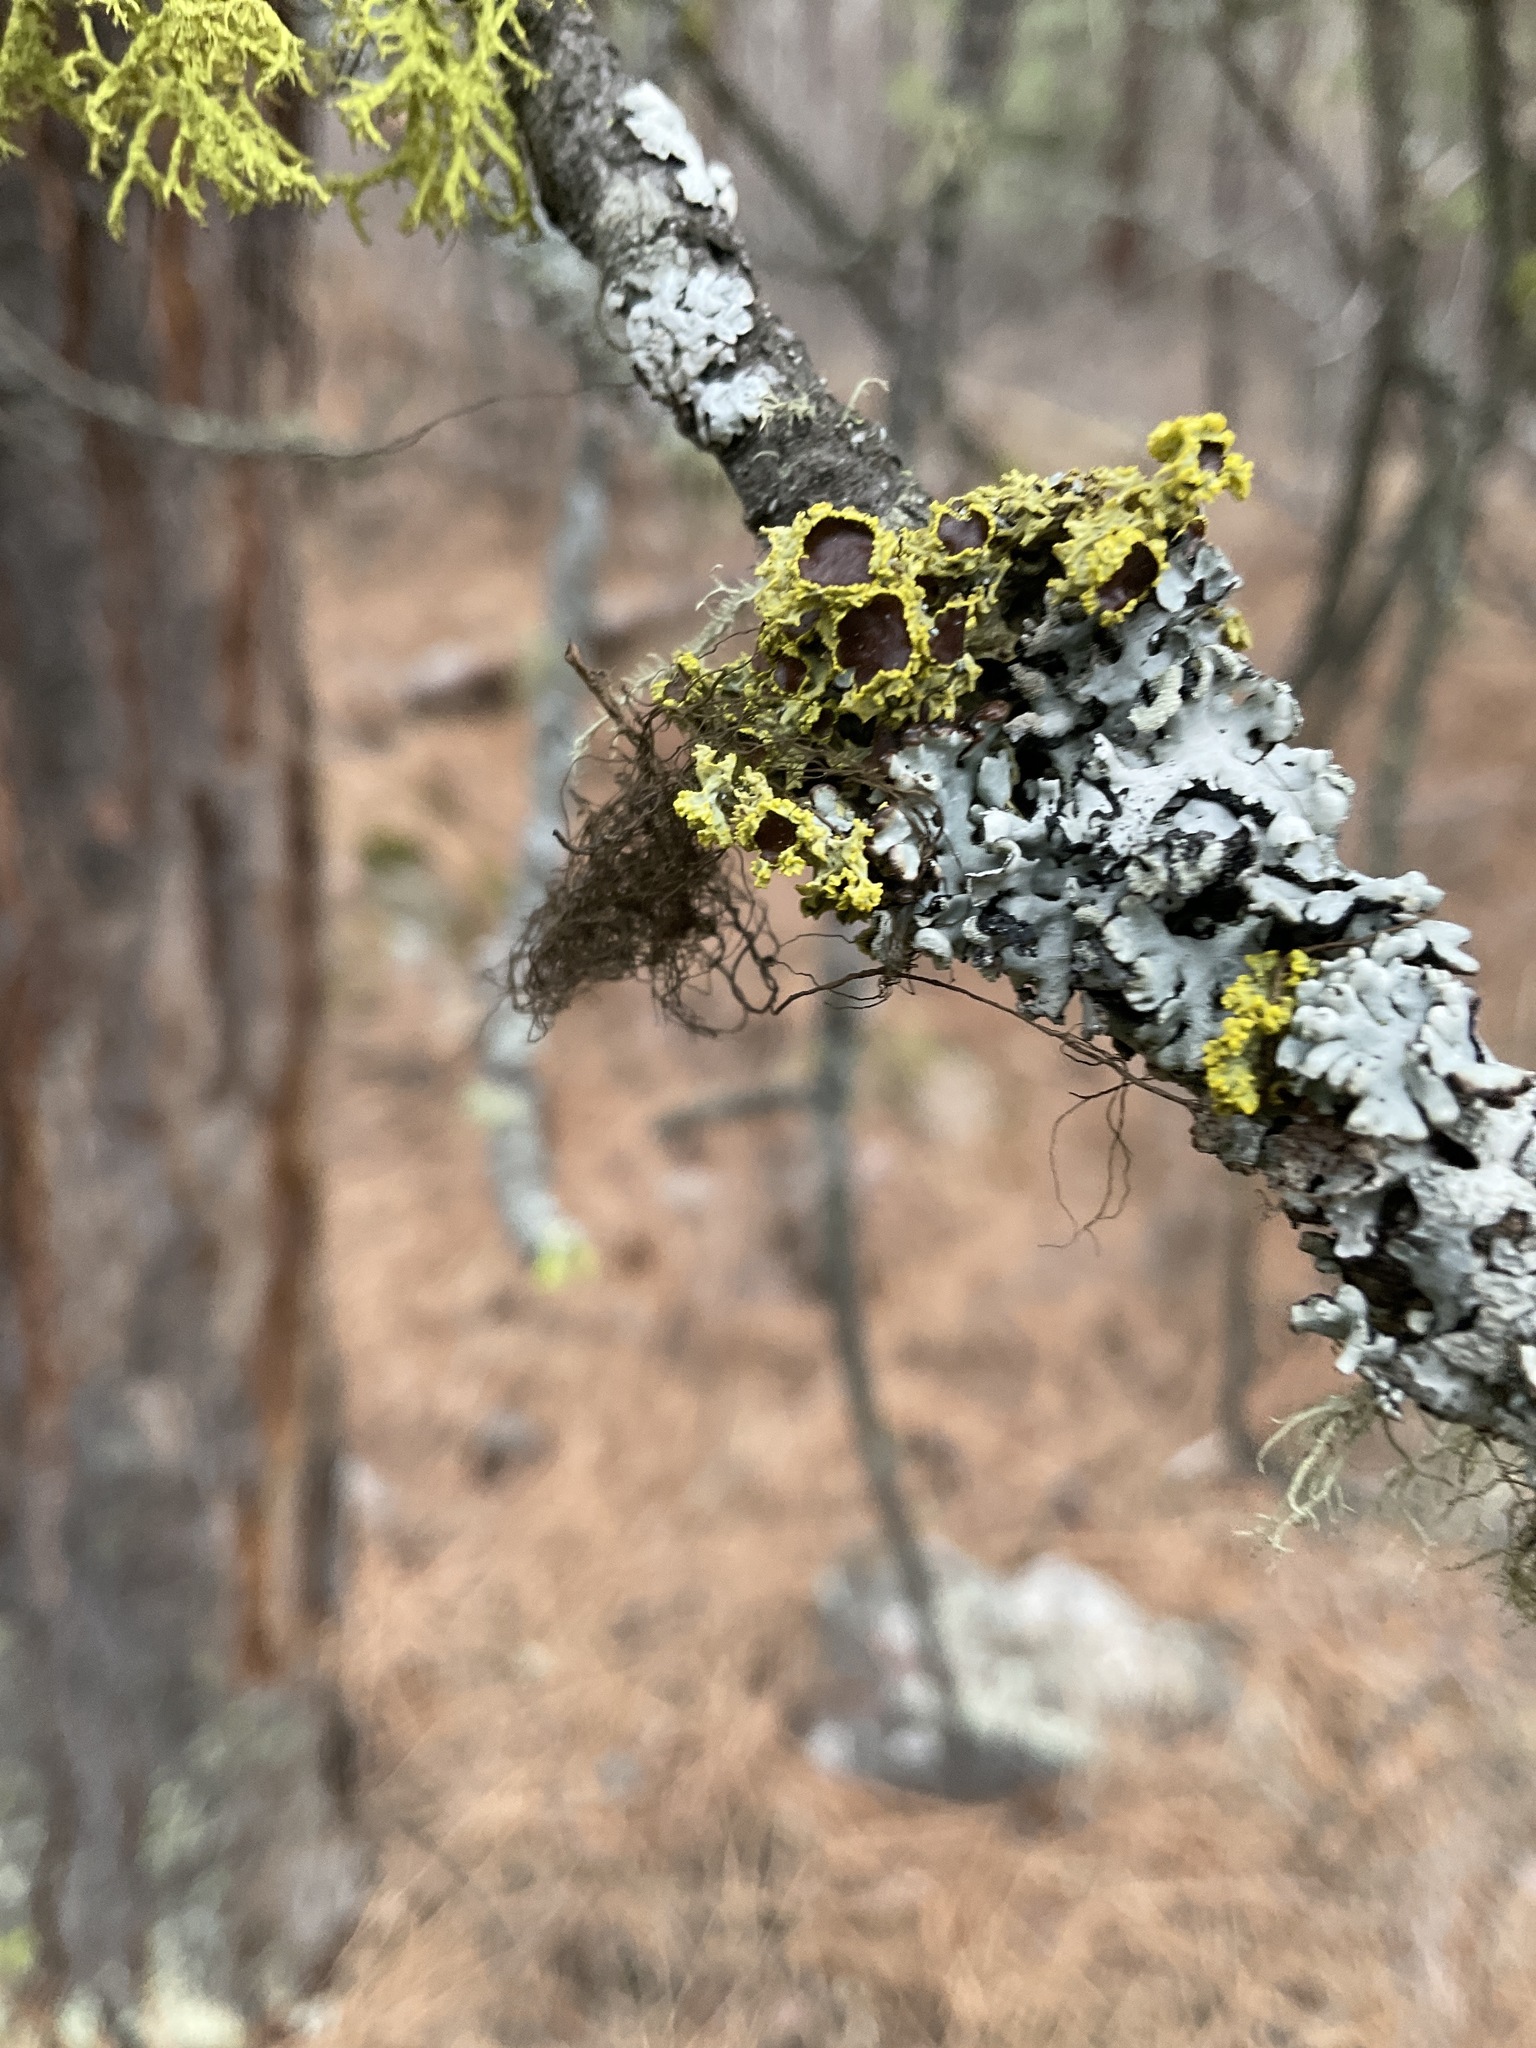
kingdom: Fungi
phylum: Ascomycota
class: Lecanoromycetes
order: Lecanorales
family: Parmeliaceae
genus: Vulpicida
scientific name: Vulpicida canadensis
